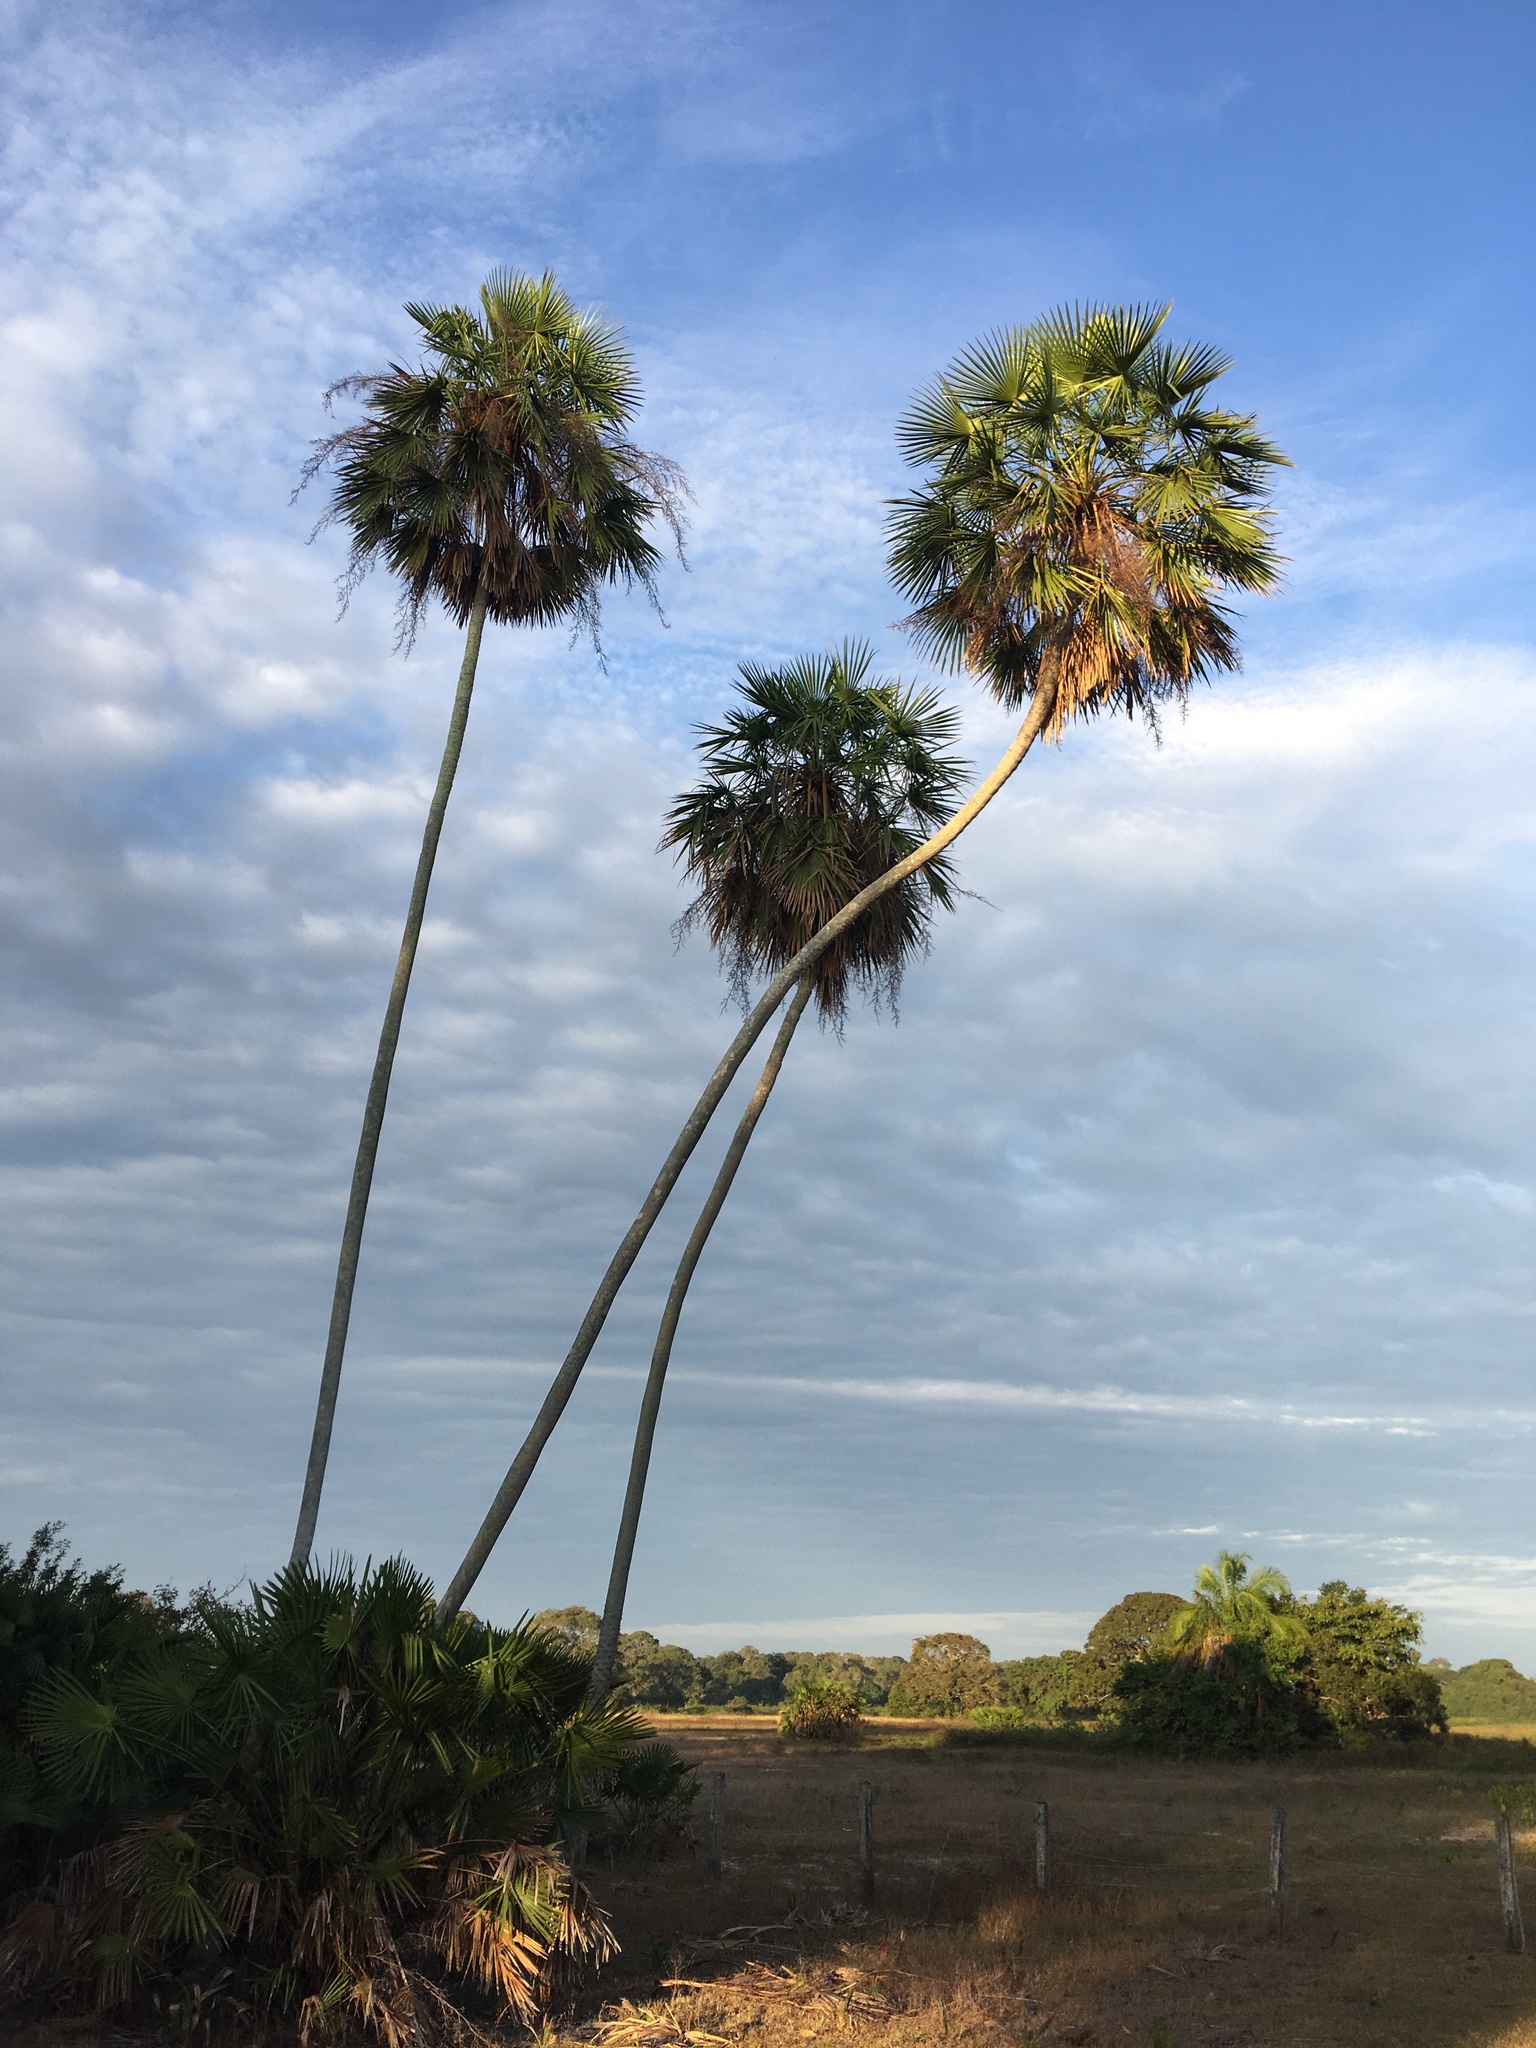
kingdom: Plantae
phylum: Tracheophyta
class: Liliopsida
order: Arecales
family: Arecaceae
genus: Copernicia
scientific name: Copernicia alba
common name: Caranday palm
